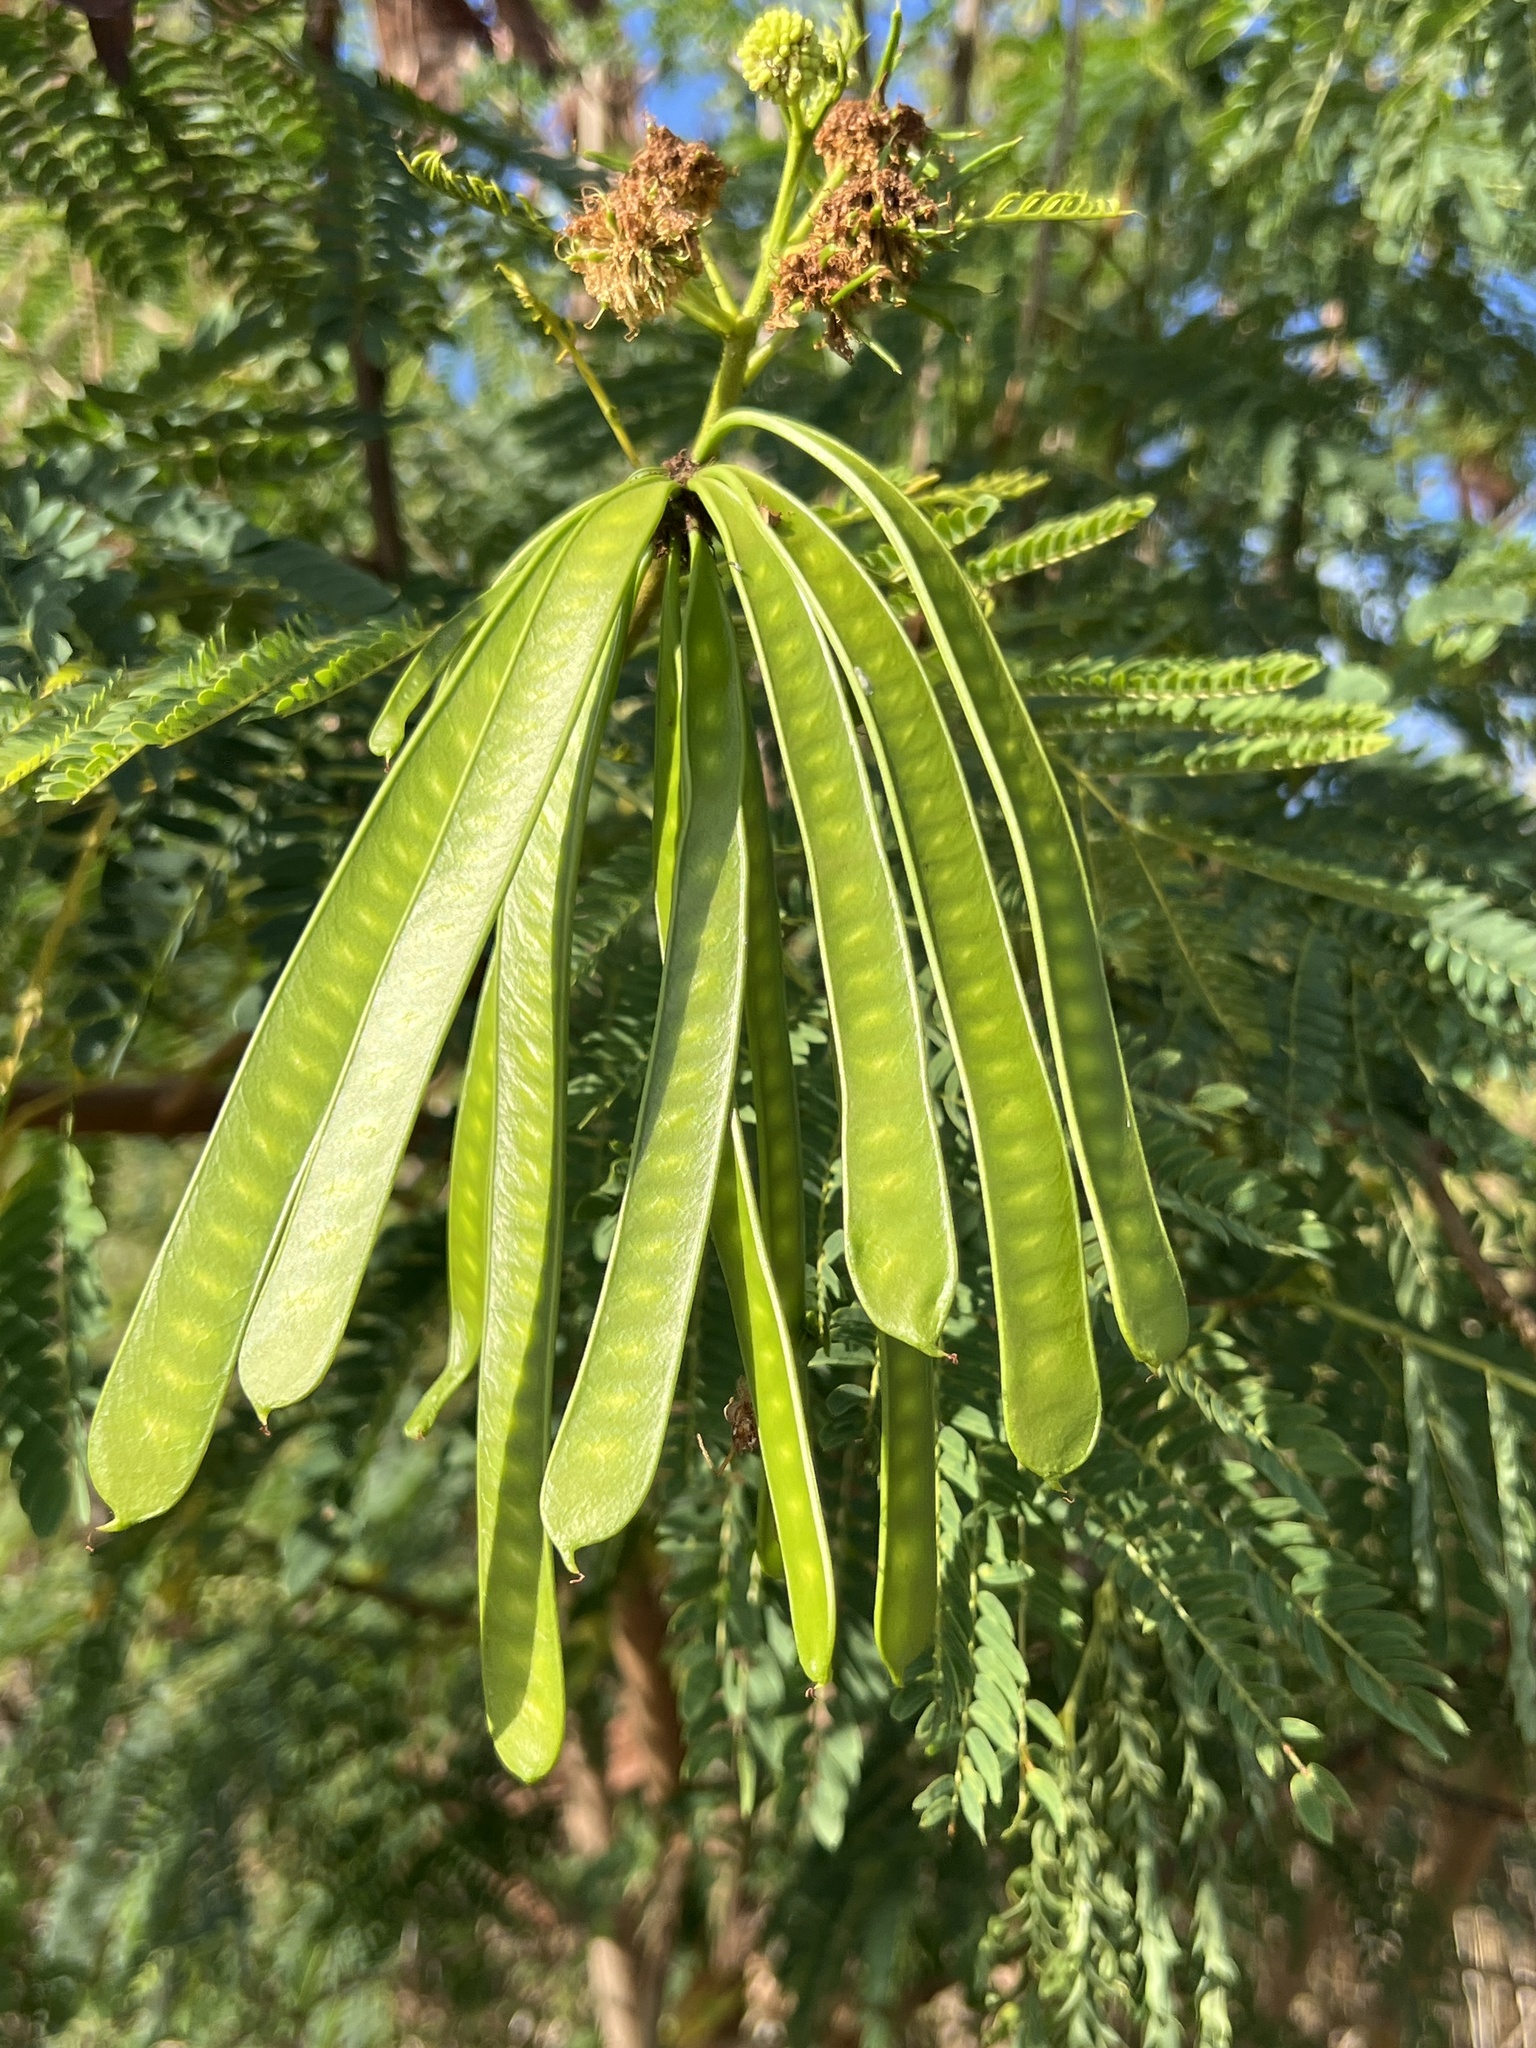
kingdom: Plantae
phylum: Tracheophyta
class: Magnoliopsida
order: Fabales
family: Fabaceae
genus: Leucaena
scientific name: Leucaena leucocephala
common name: White leadtree
